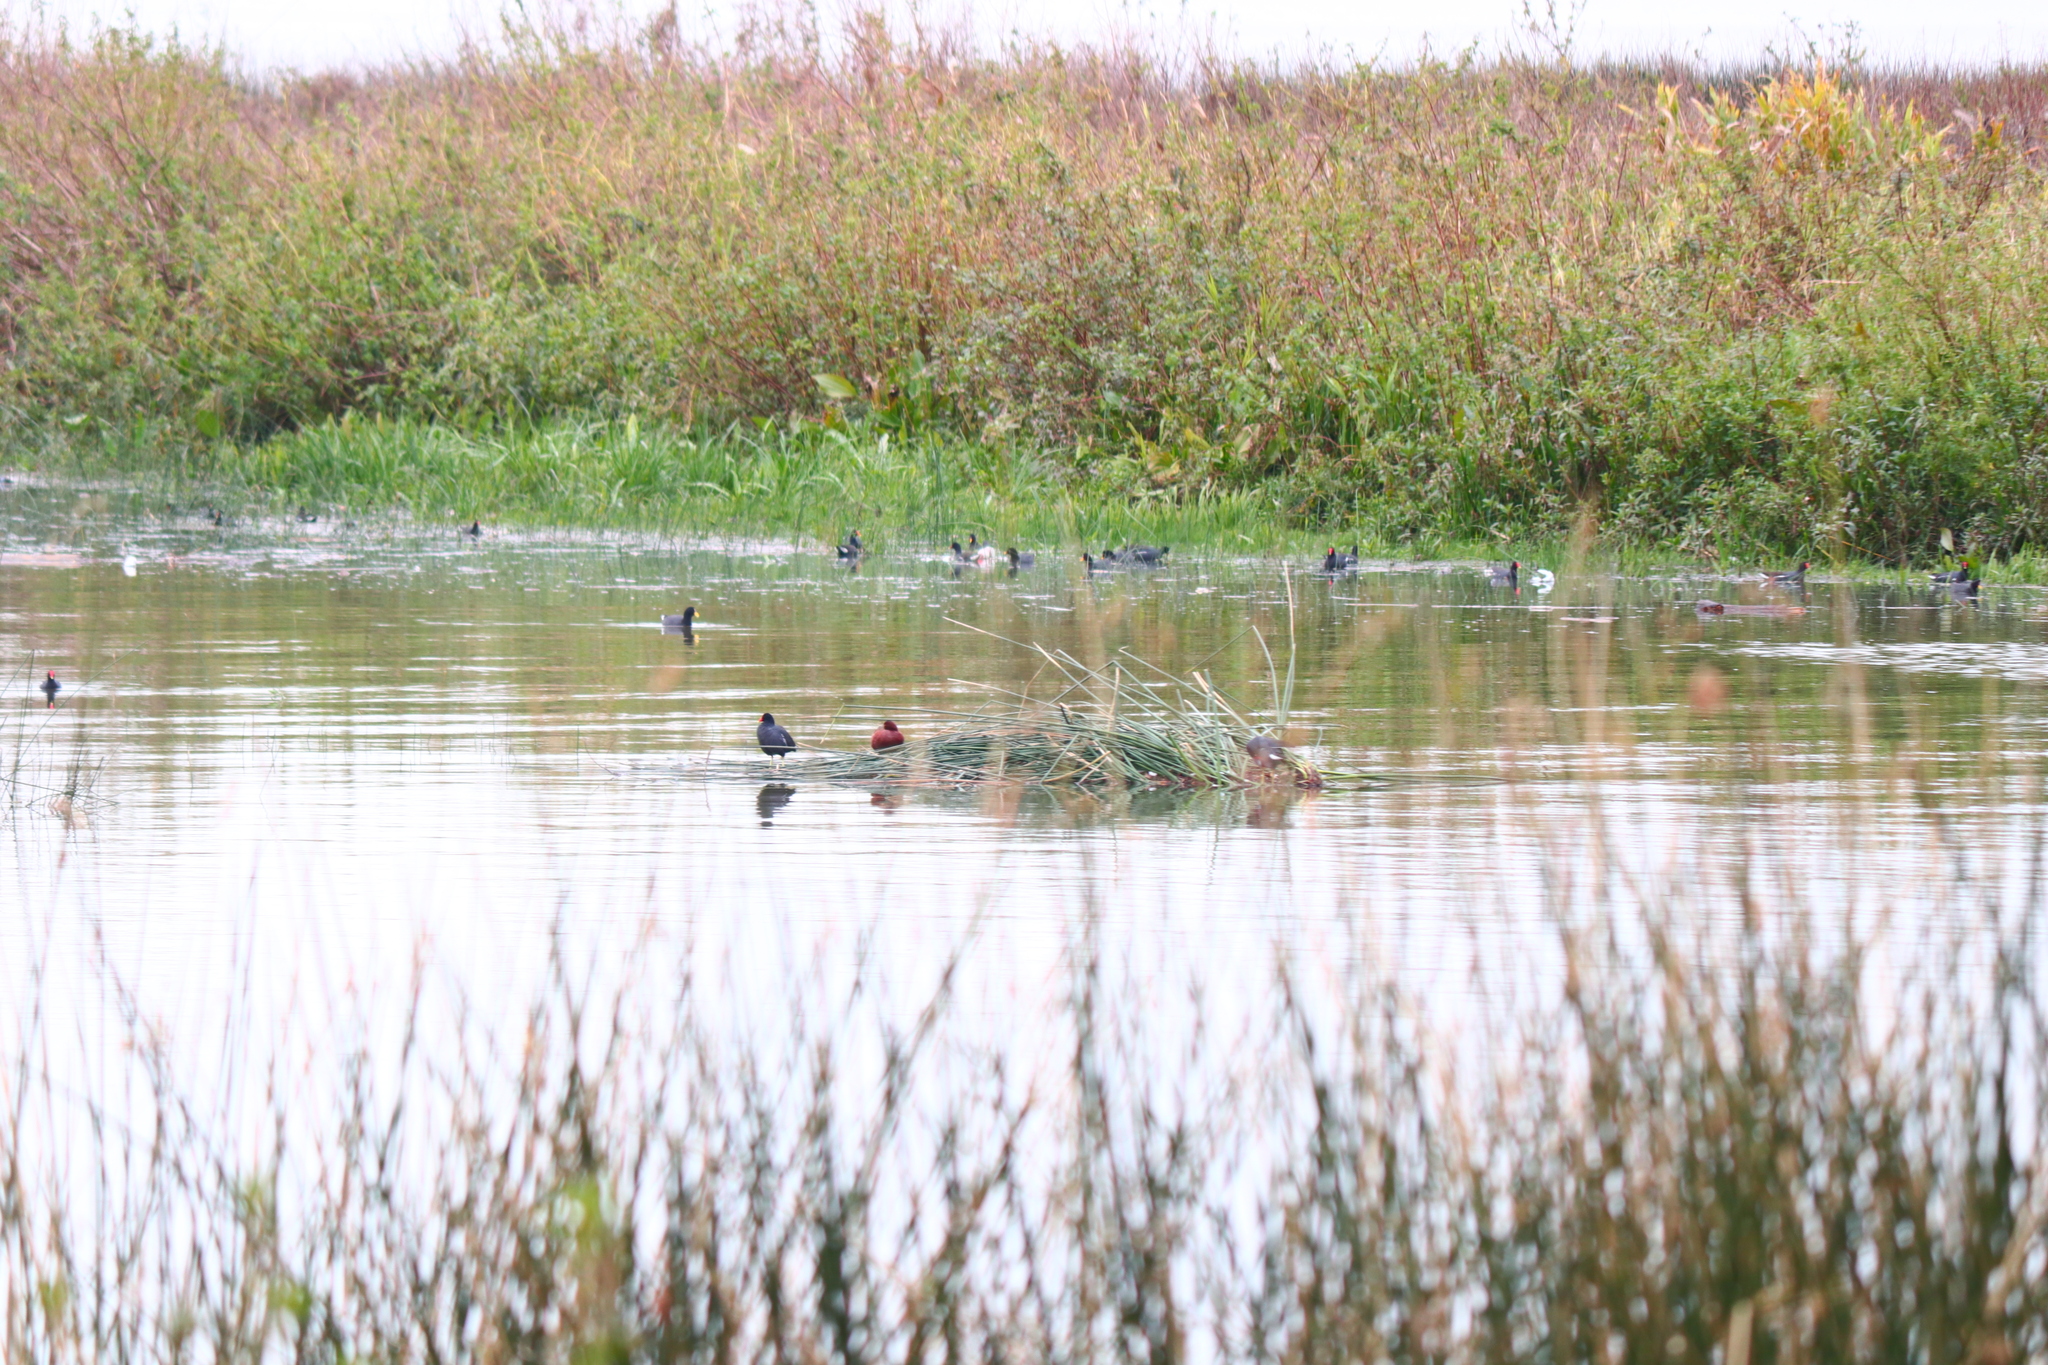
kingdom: Animalia
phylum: Chordata
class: Aves
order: Anseriformes
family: Anatidae
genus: Spatula
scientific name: Spatula cyanoptera
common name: Cinnamon teal
